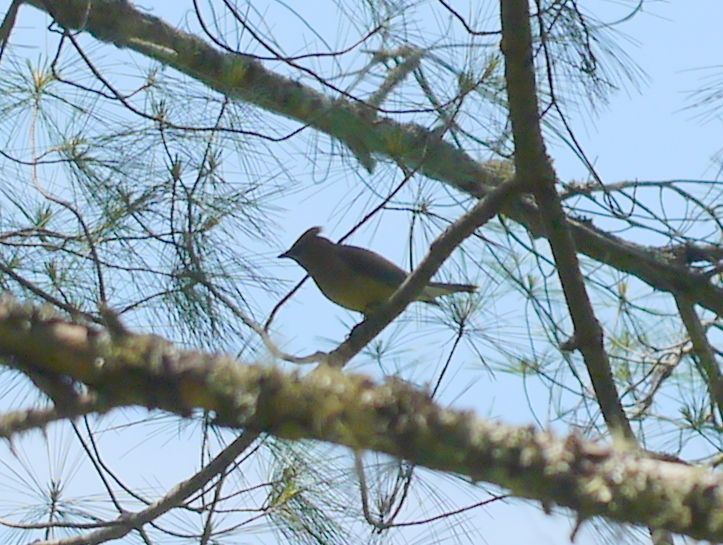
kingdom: Animalia
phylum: Chordata
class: Aves
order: Passeriformes
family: Bombycillidae
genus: Bombycilla
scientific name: Bombycilla cedrorum
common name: Cedar waxwing
